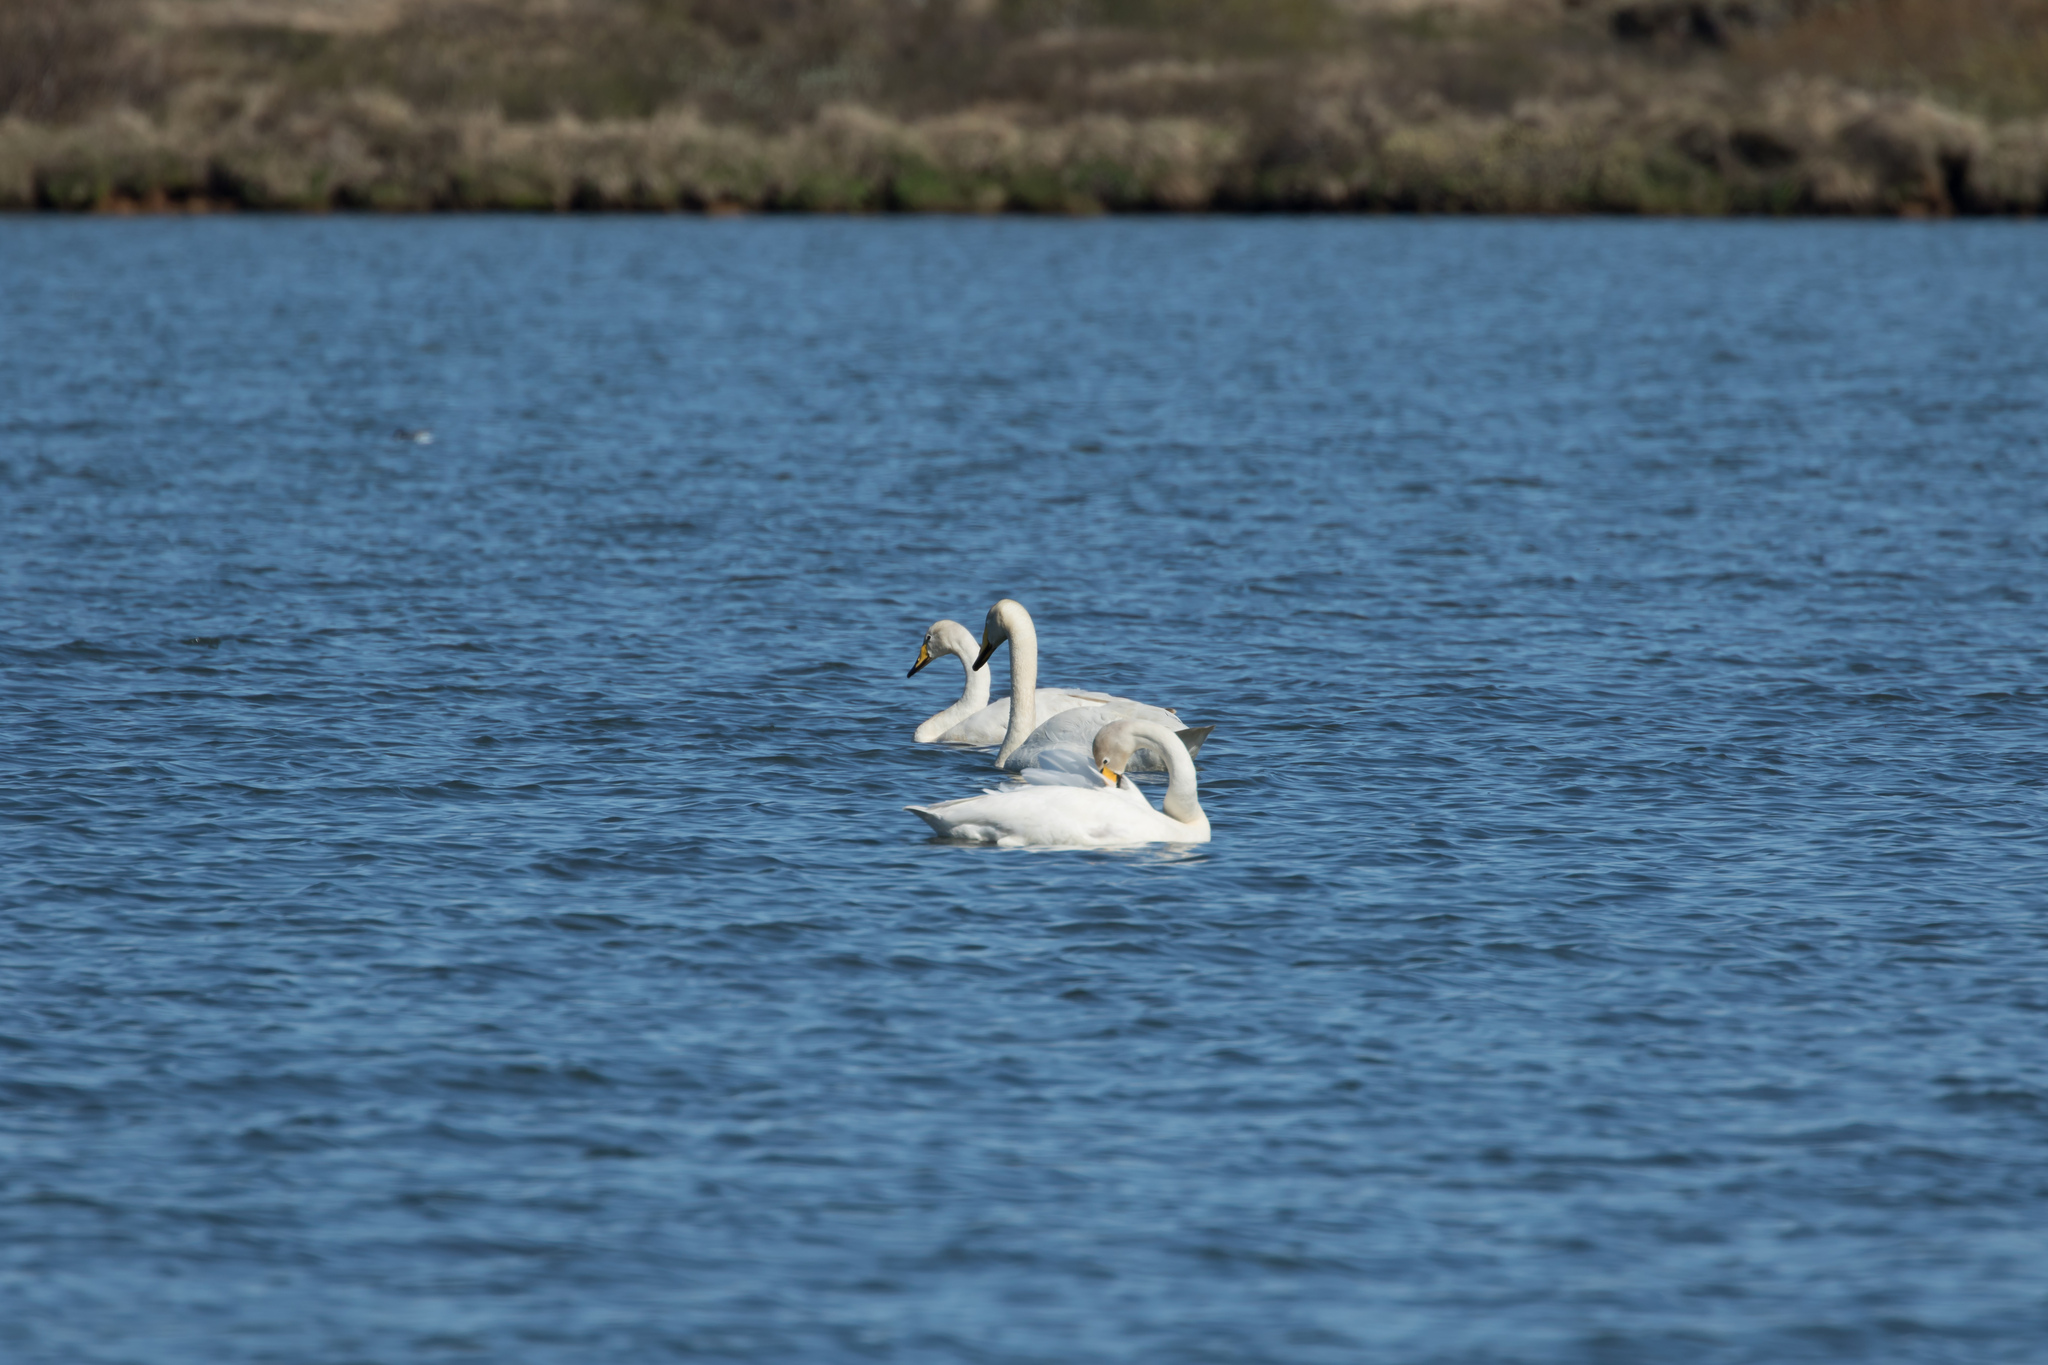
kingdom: Animalia
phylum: Chordata
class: Aves
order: Anseriformes
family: Anatidae
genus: Cygnus
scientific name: Cygnus cygnus
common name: Whooper swan
